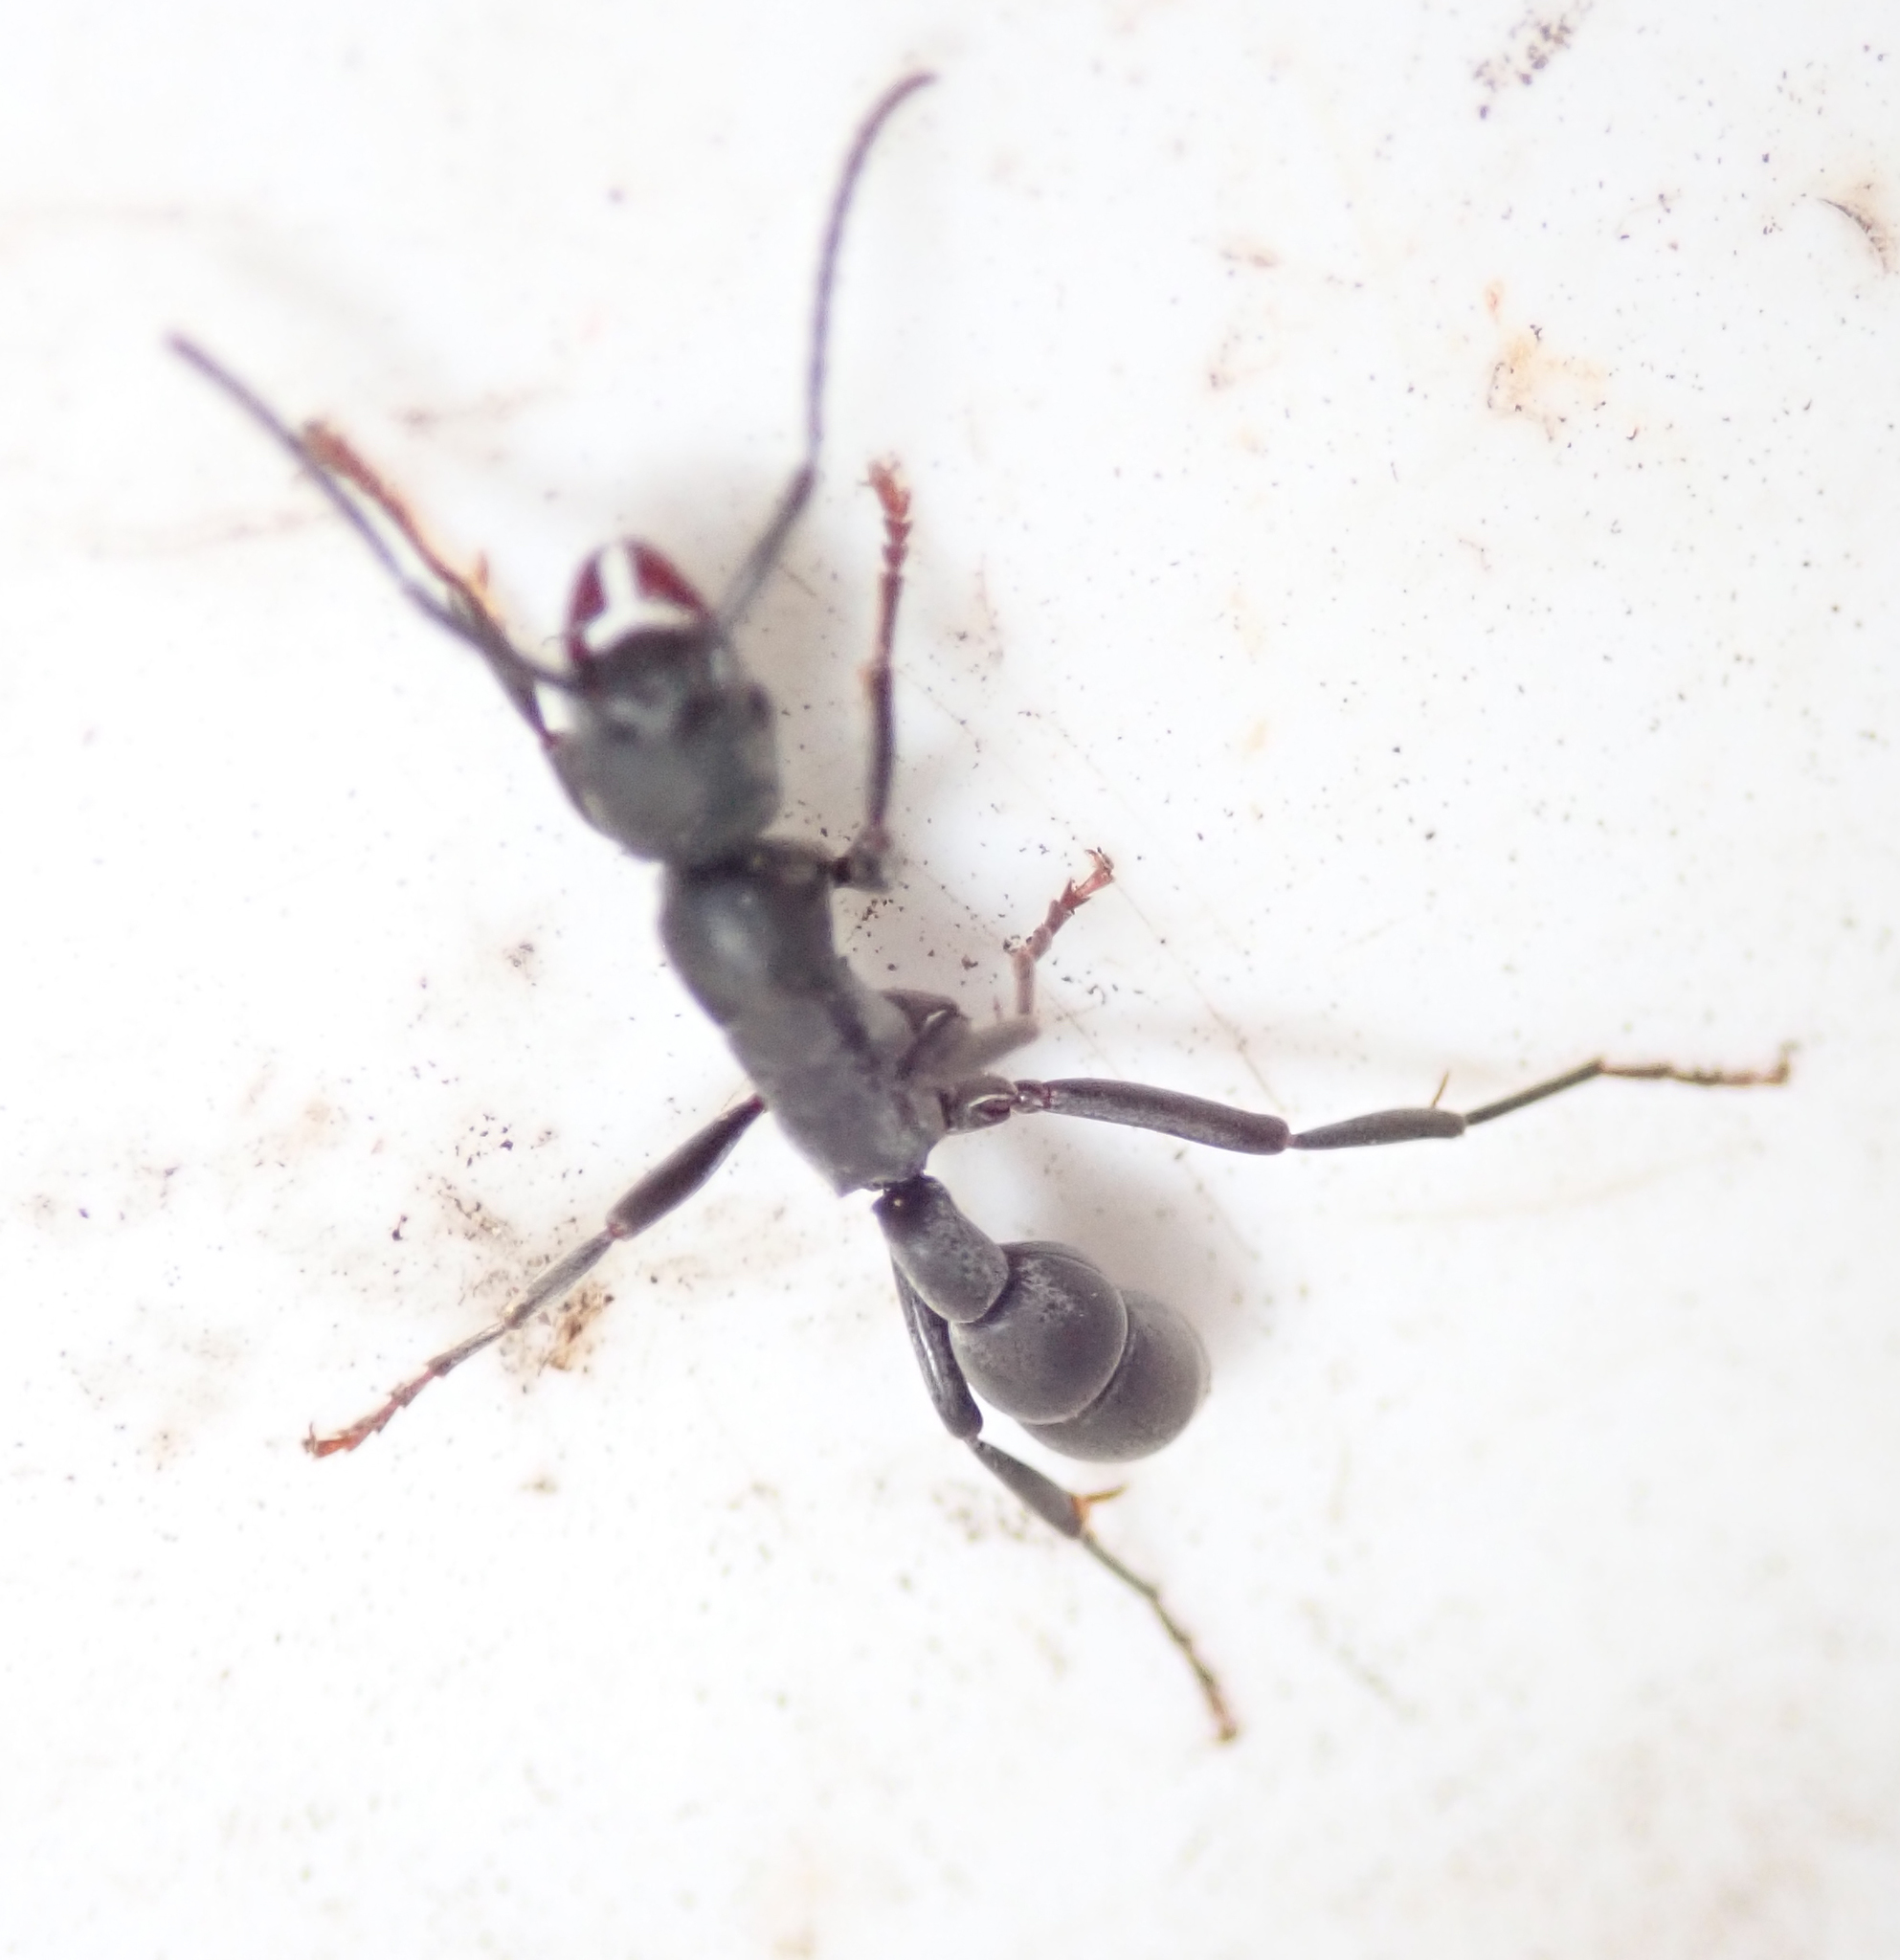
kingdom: Animalia
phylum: Arthropoda
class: Insecta
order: Hymenoptera
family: Formicidae
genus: Platythyrea
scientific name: Platythyrea lamellosa
